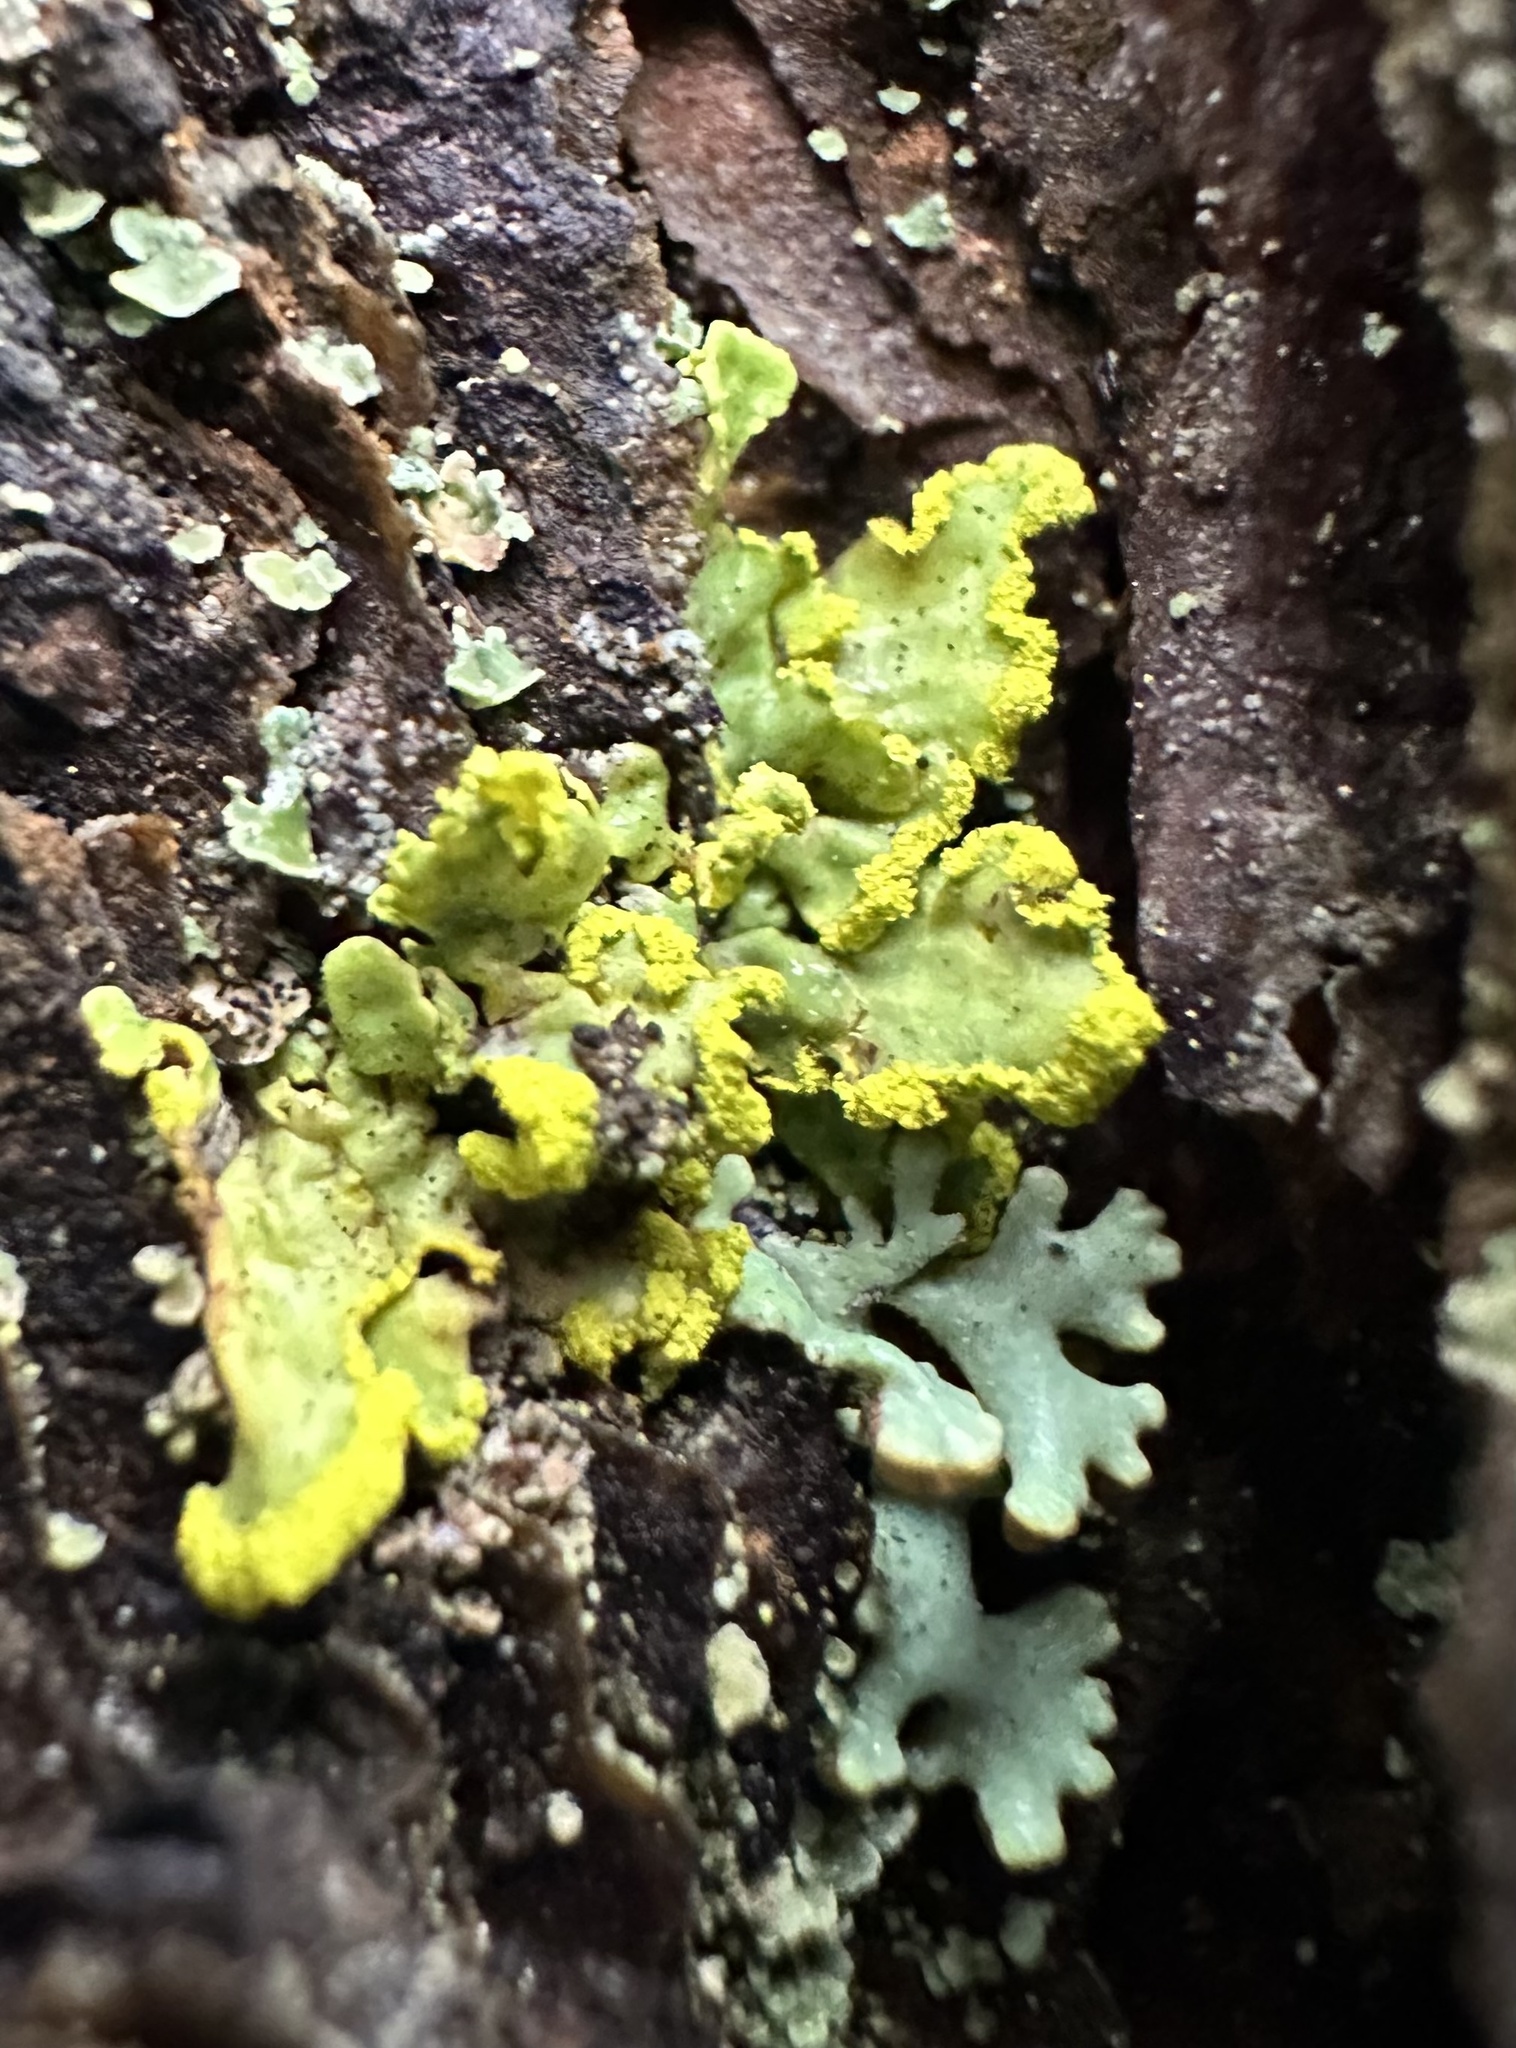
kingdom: Fungi
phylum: Ascomycota
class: Lecanoromycetes
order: Lecanorales
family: Parmeliaceae
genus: Vulpicida
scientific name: Vulpicida pinastri
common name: Powdered sunshine lichen
